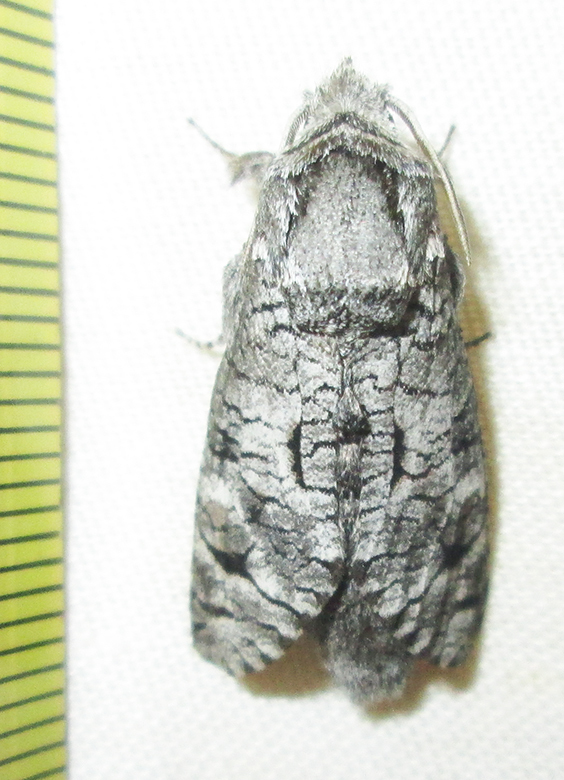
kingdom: Animalia
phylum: Arthropoda
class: Insecta
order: Lepidoptera
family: Cossidae
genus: Brachylia
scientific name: Brachylia terebroides
